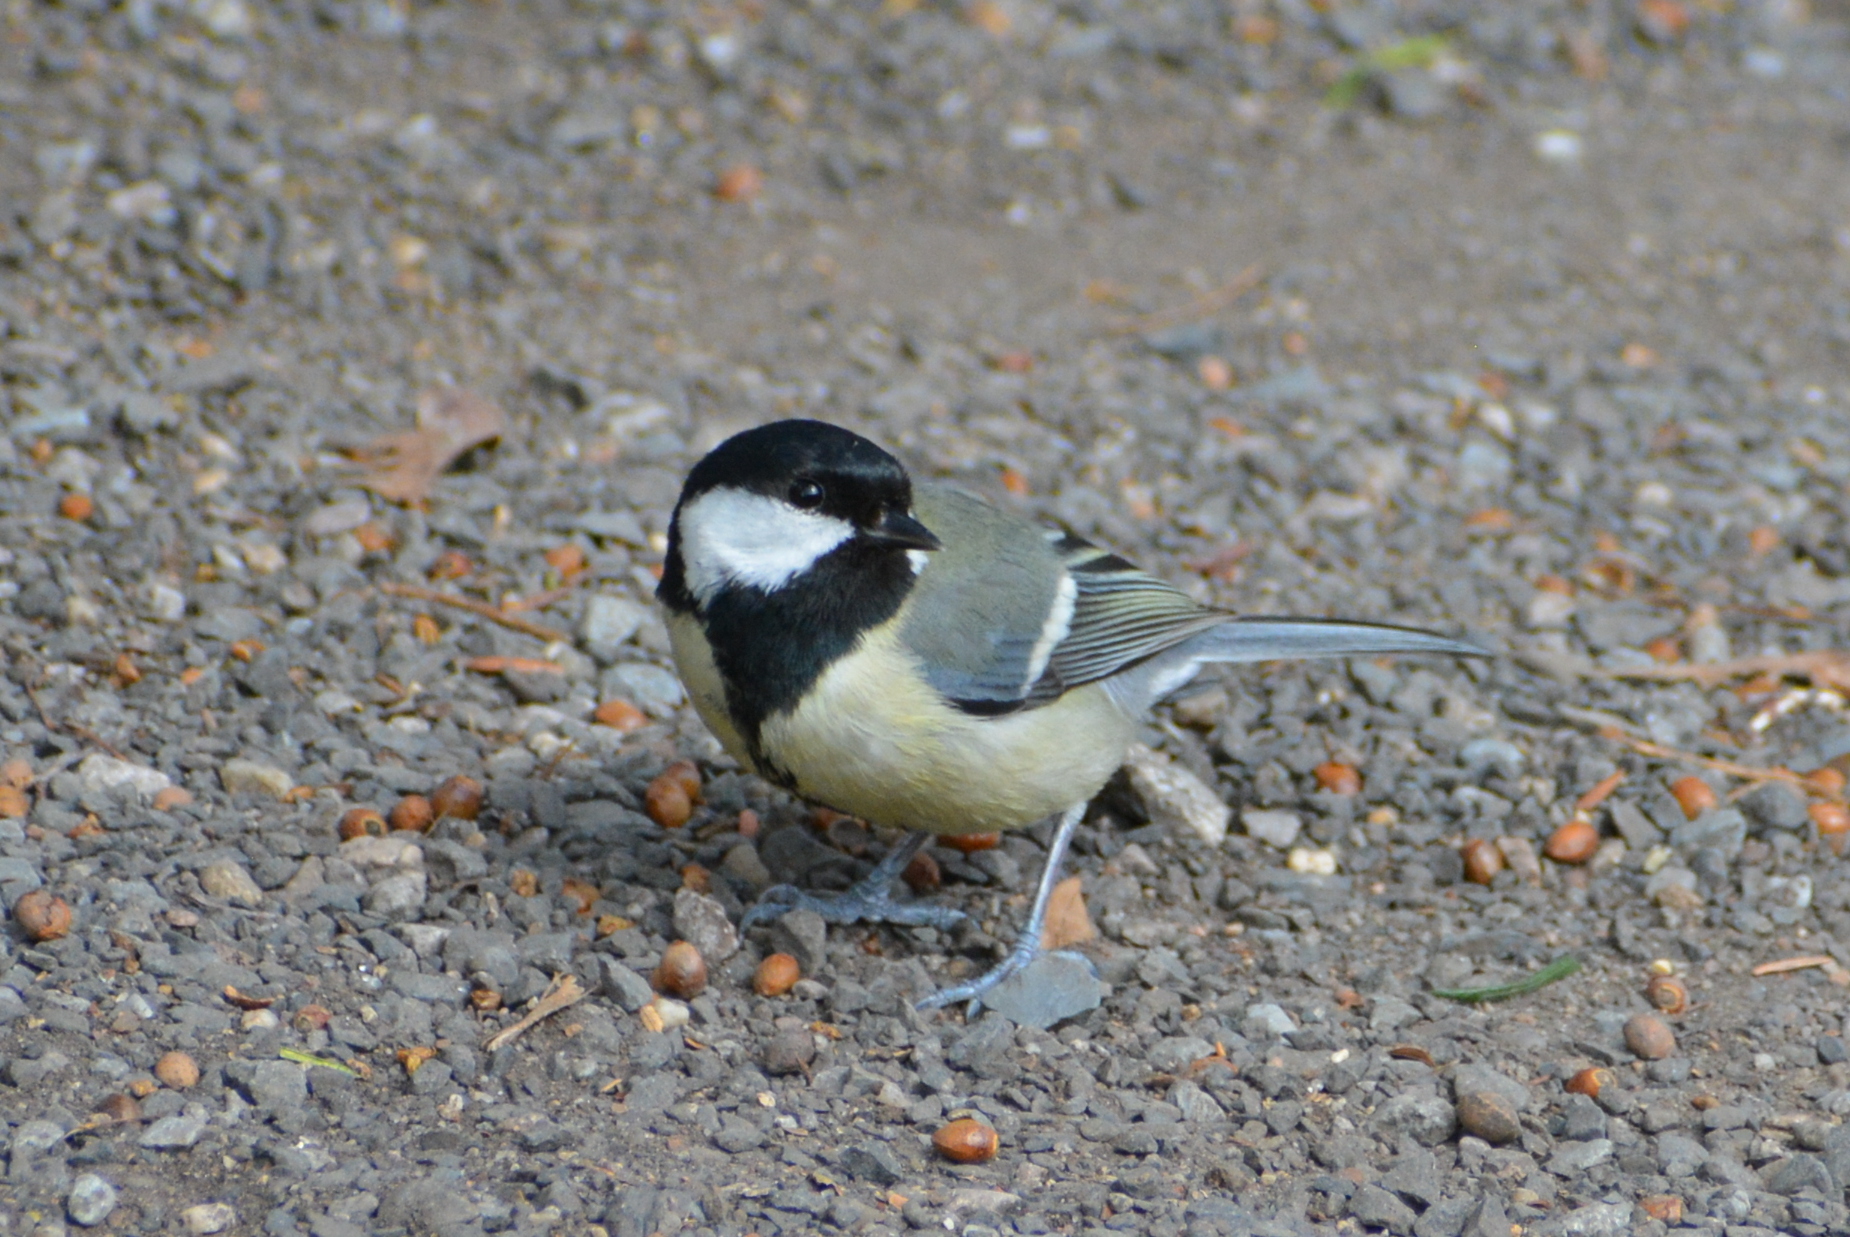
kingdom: Animalia
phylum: Chordata
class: Aves
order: Passeriformes
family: Paridae
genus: Parus
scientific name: Parus major
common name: Great tit
